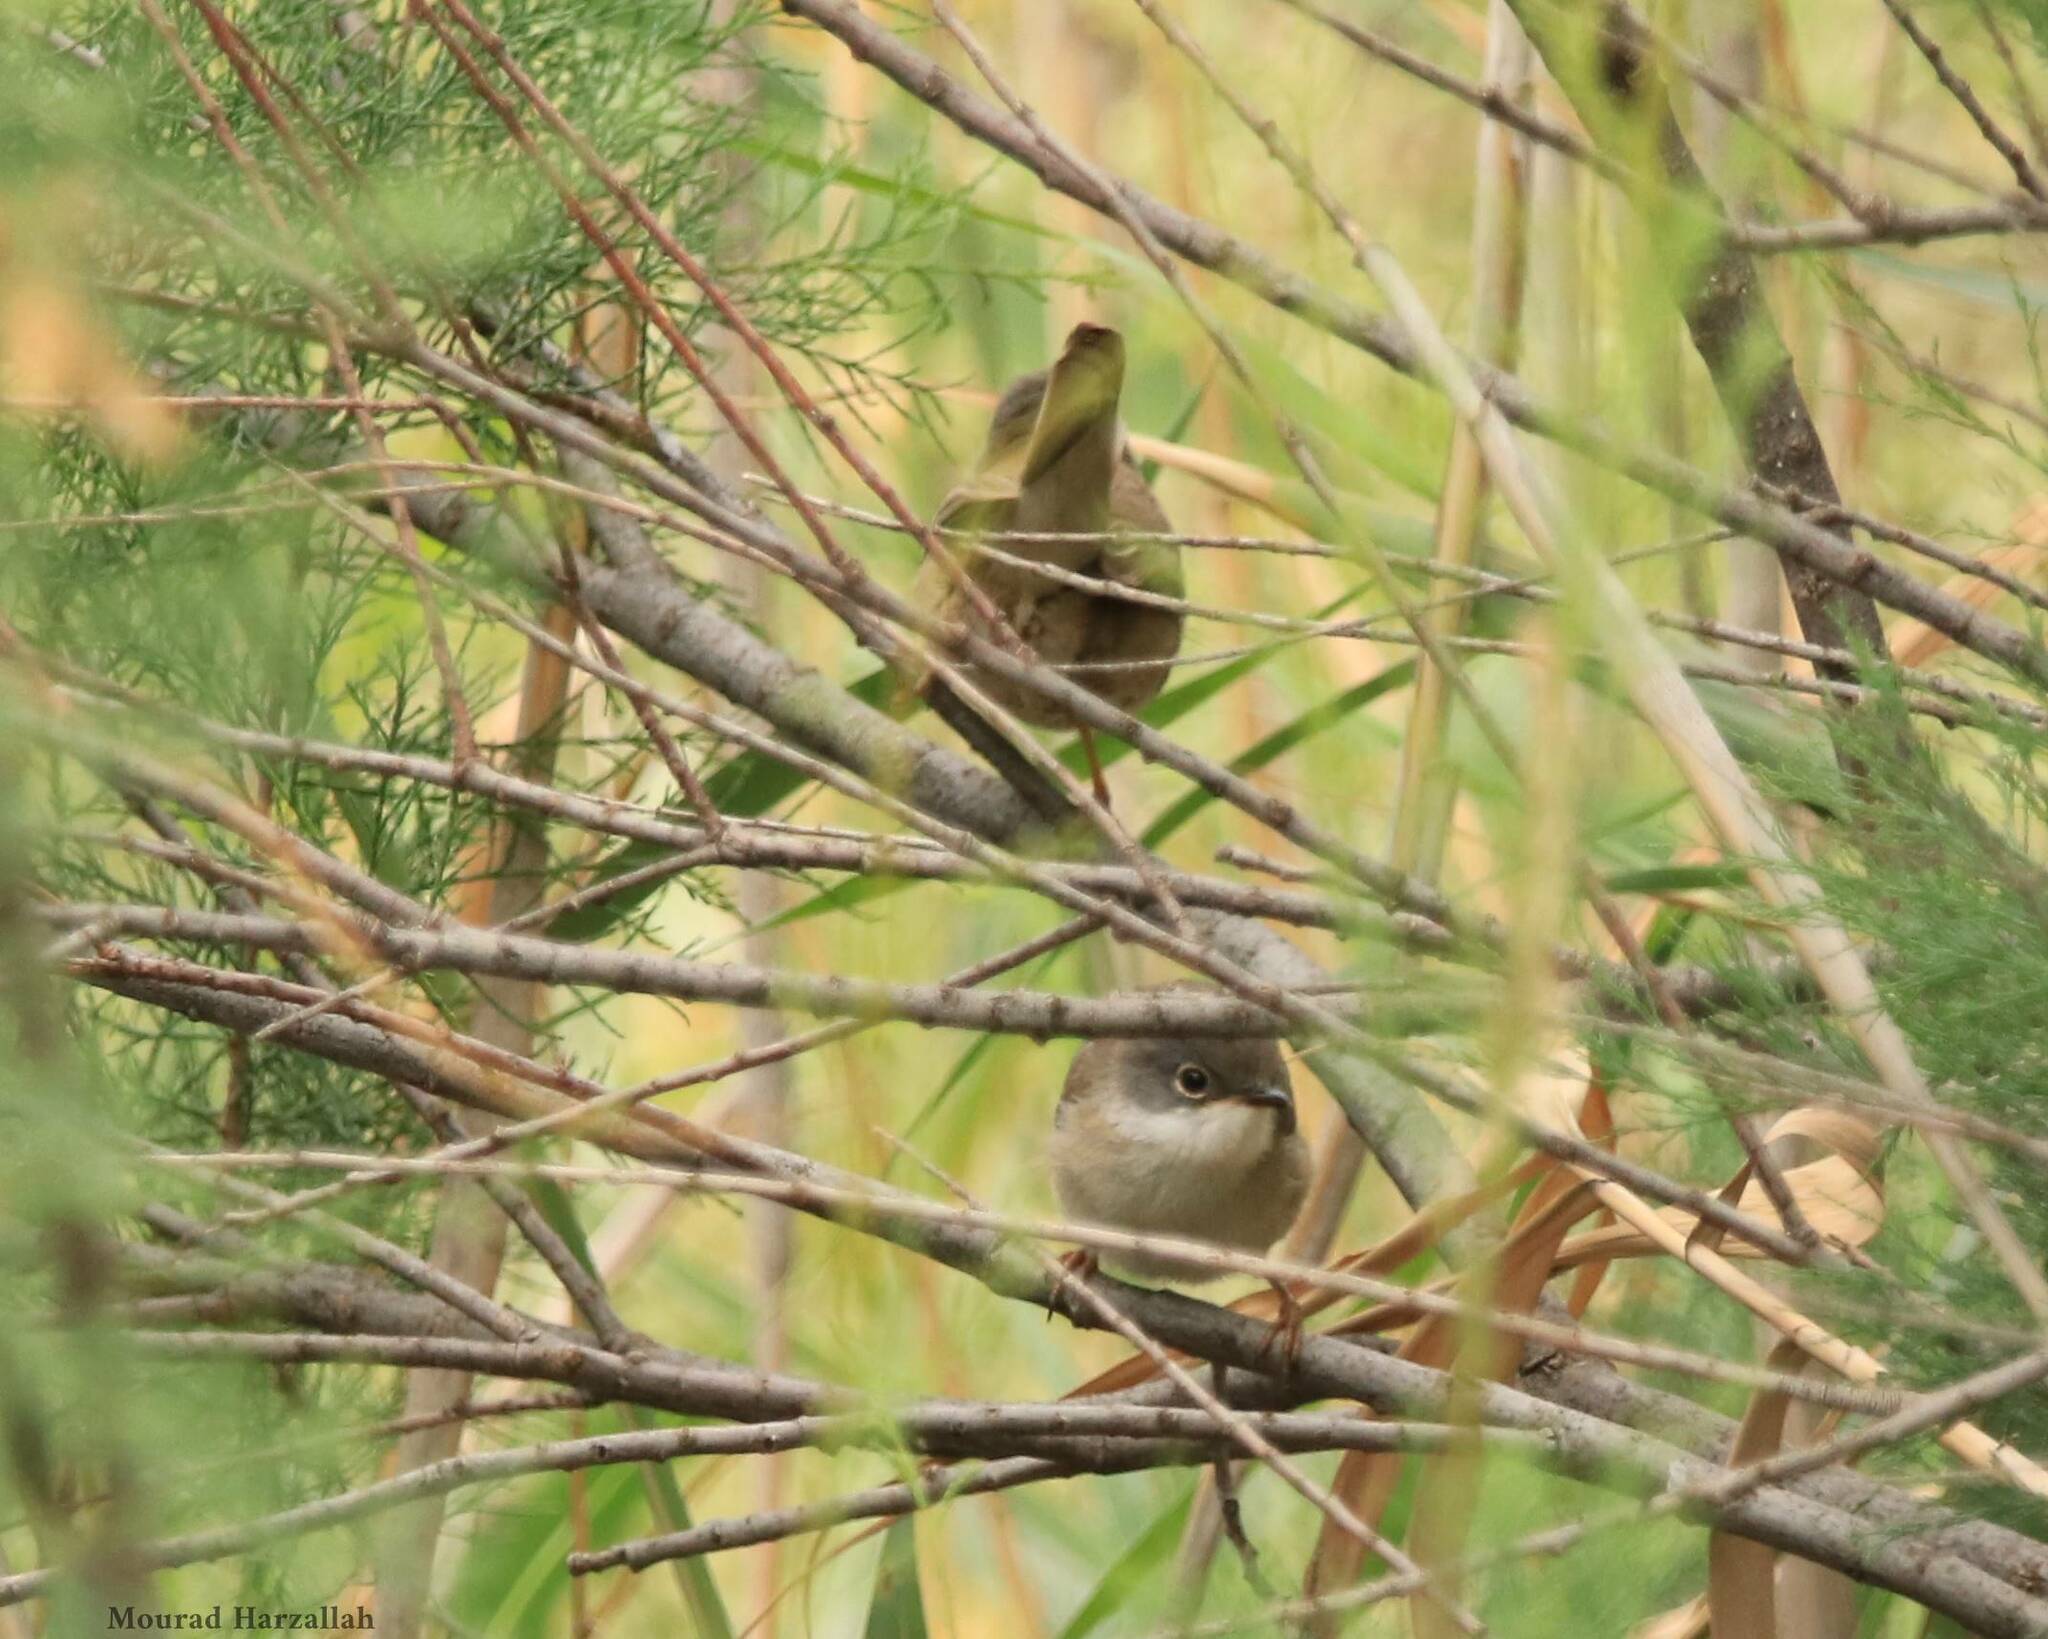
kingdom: Animalia
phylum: Chordata
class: Aves
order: Passeriformes
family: Sylviidae
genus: Curruca
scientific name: Curruca melanocephala
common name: Sardinian warbler
